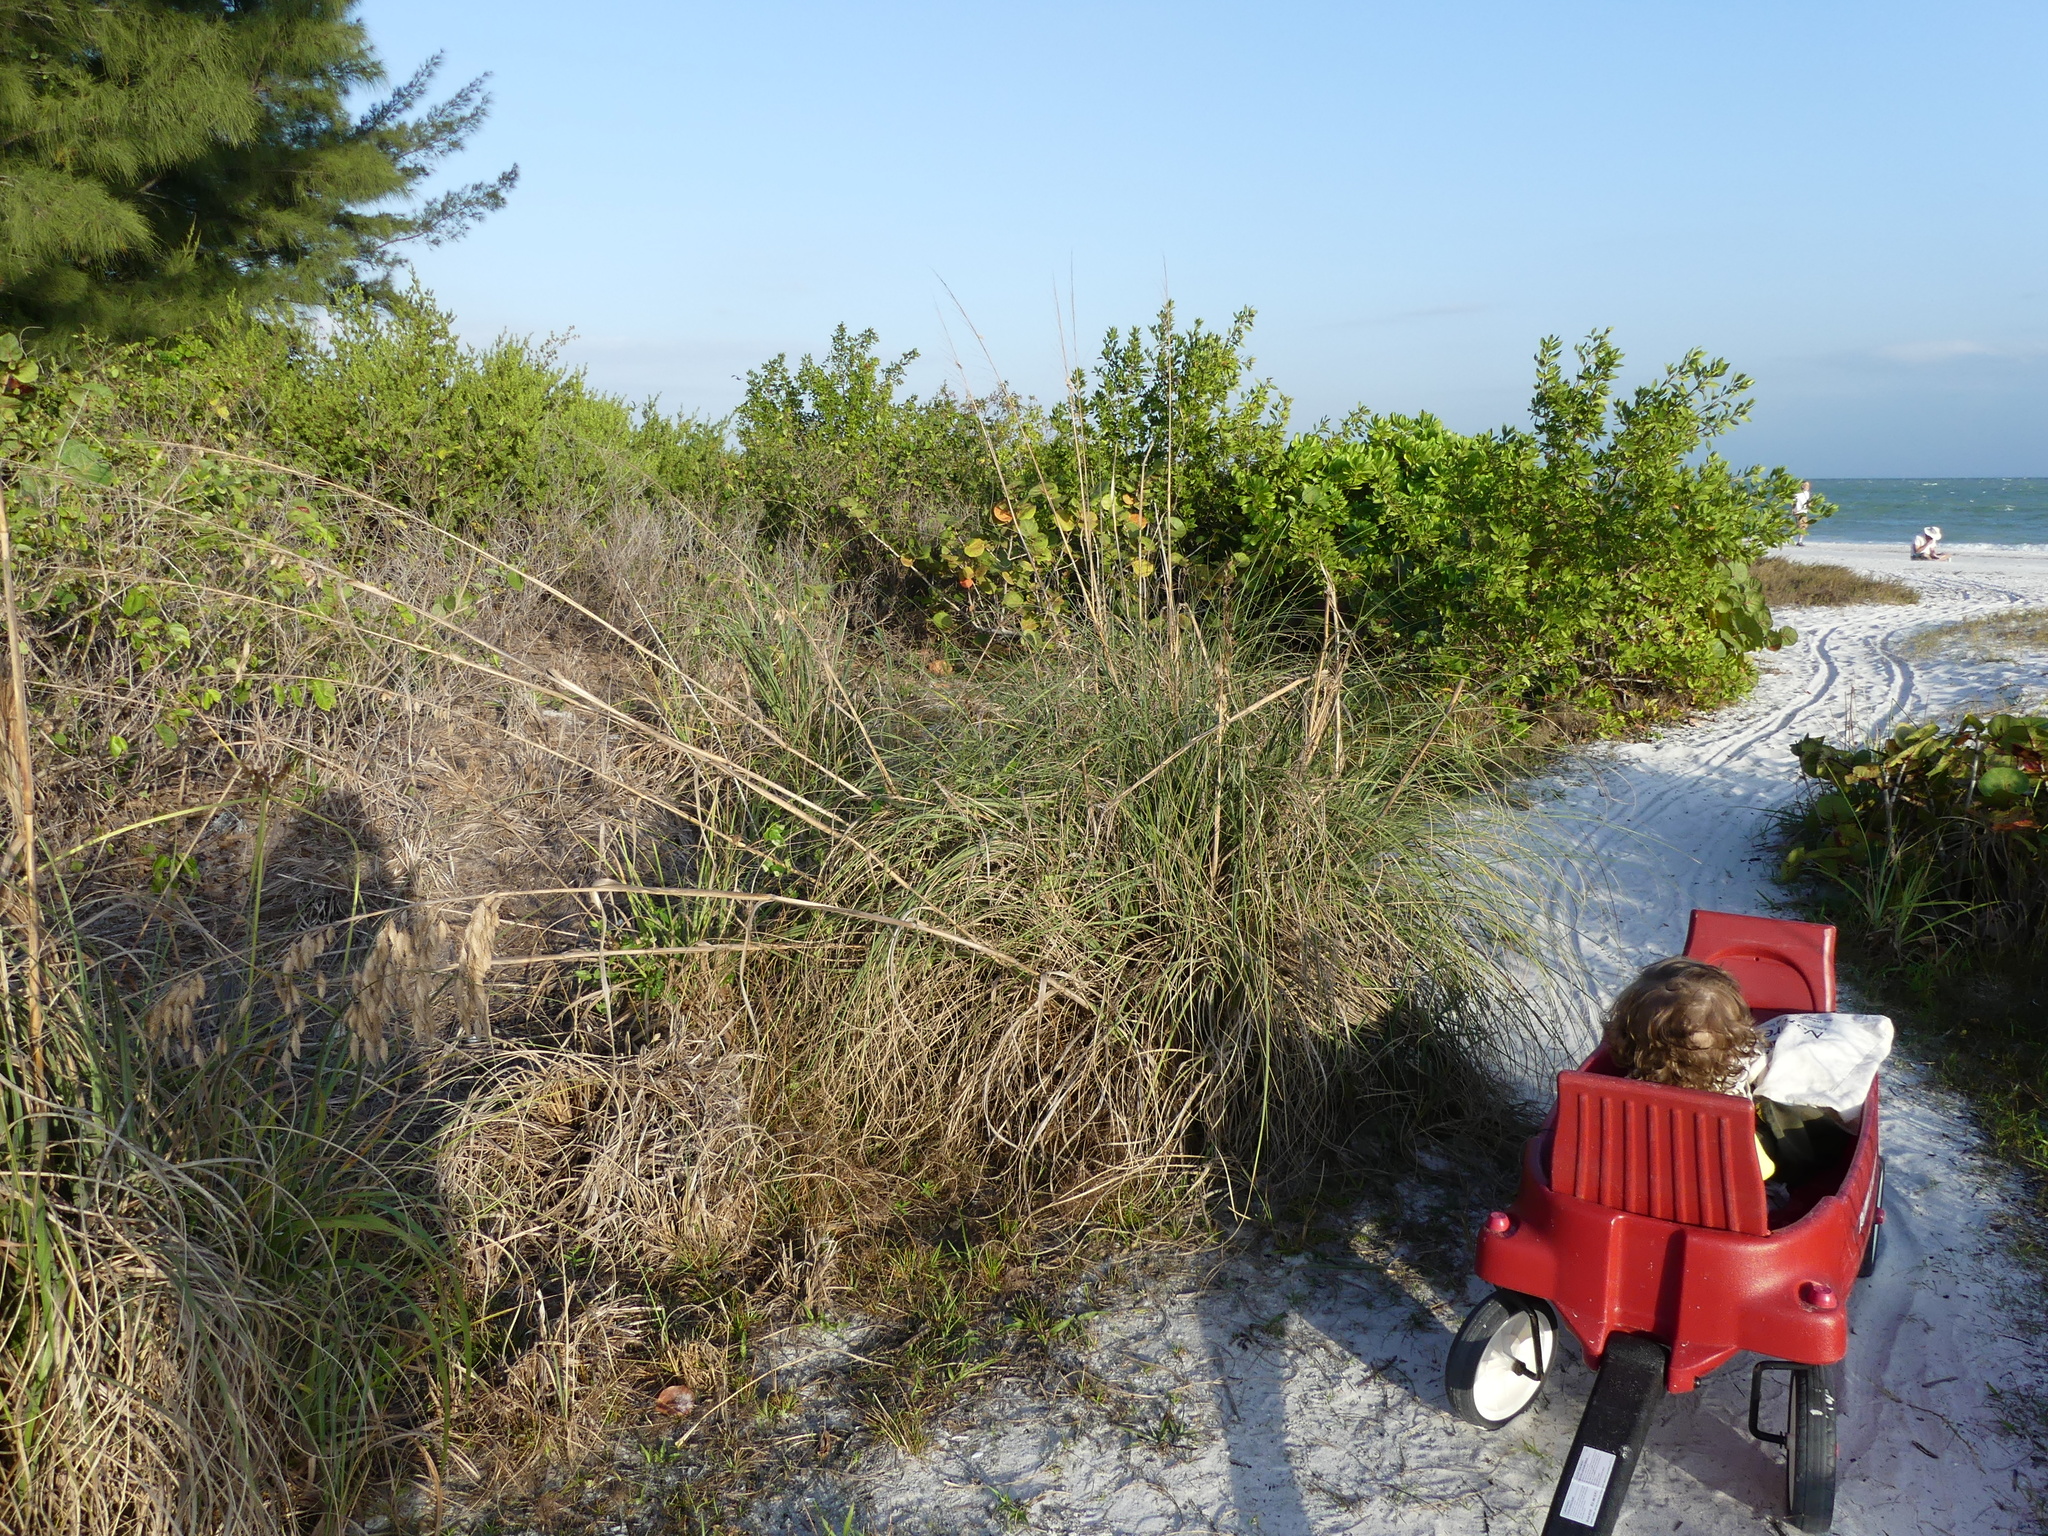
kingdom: Plantae
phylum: Tracheophyta
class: Liliopsida
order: Poales
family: Poaceae
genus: Uniola
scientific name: Uniola paniculata
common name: Seaside-oats
